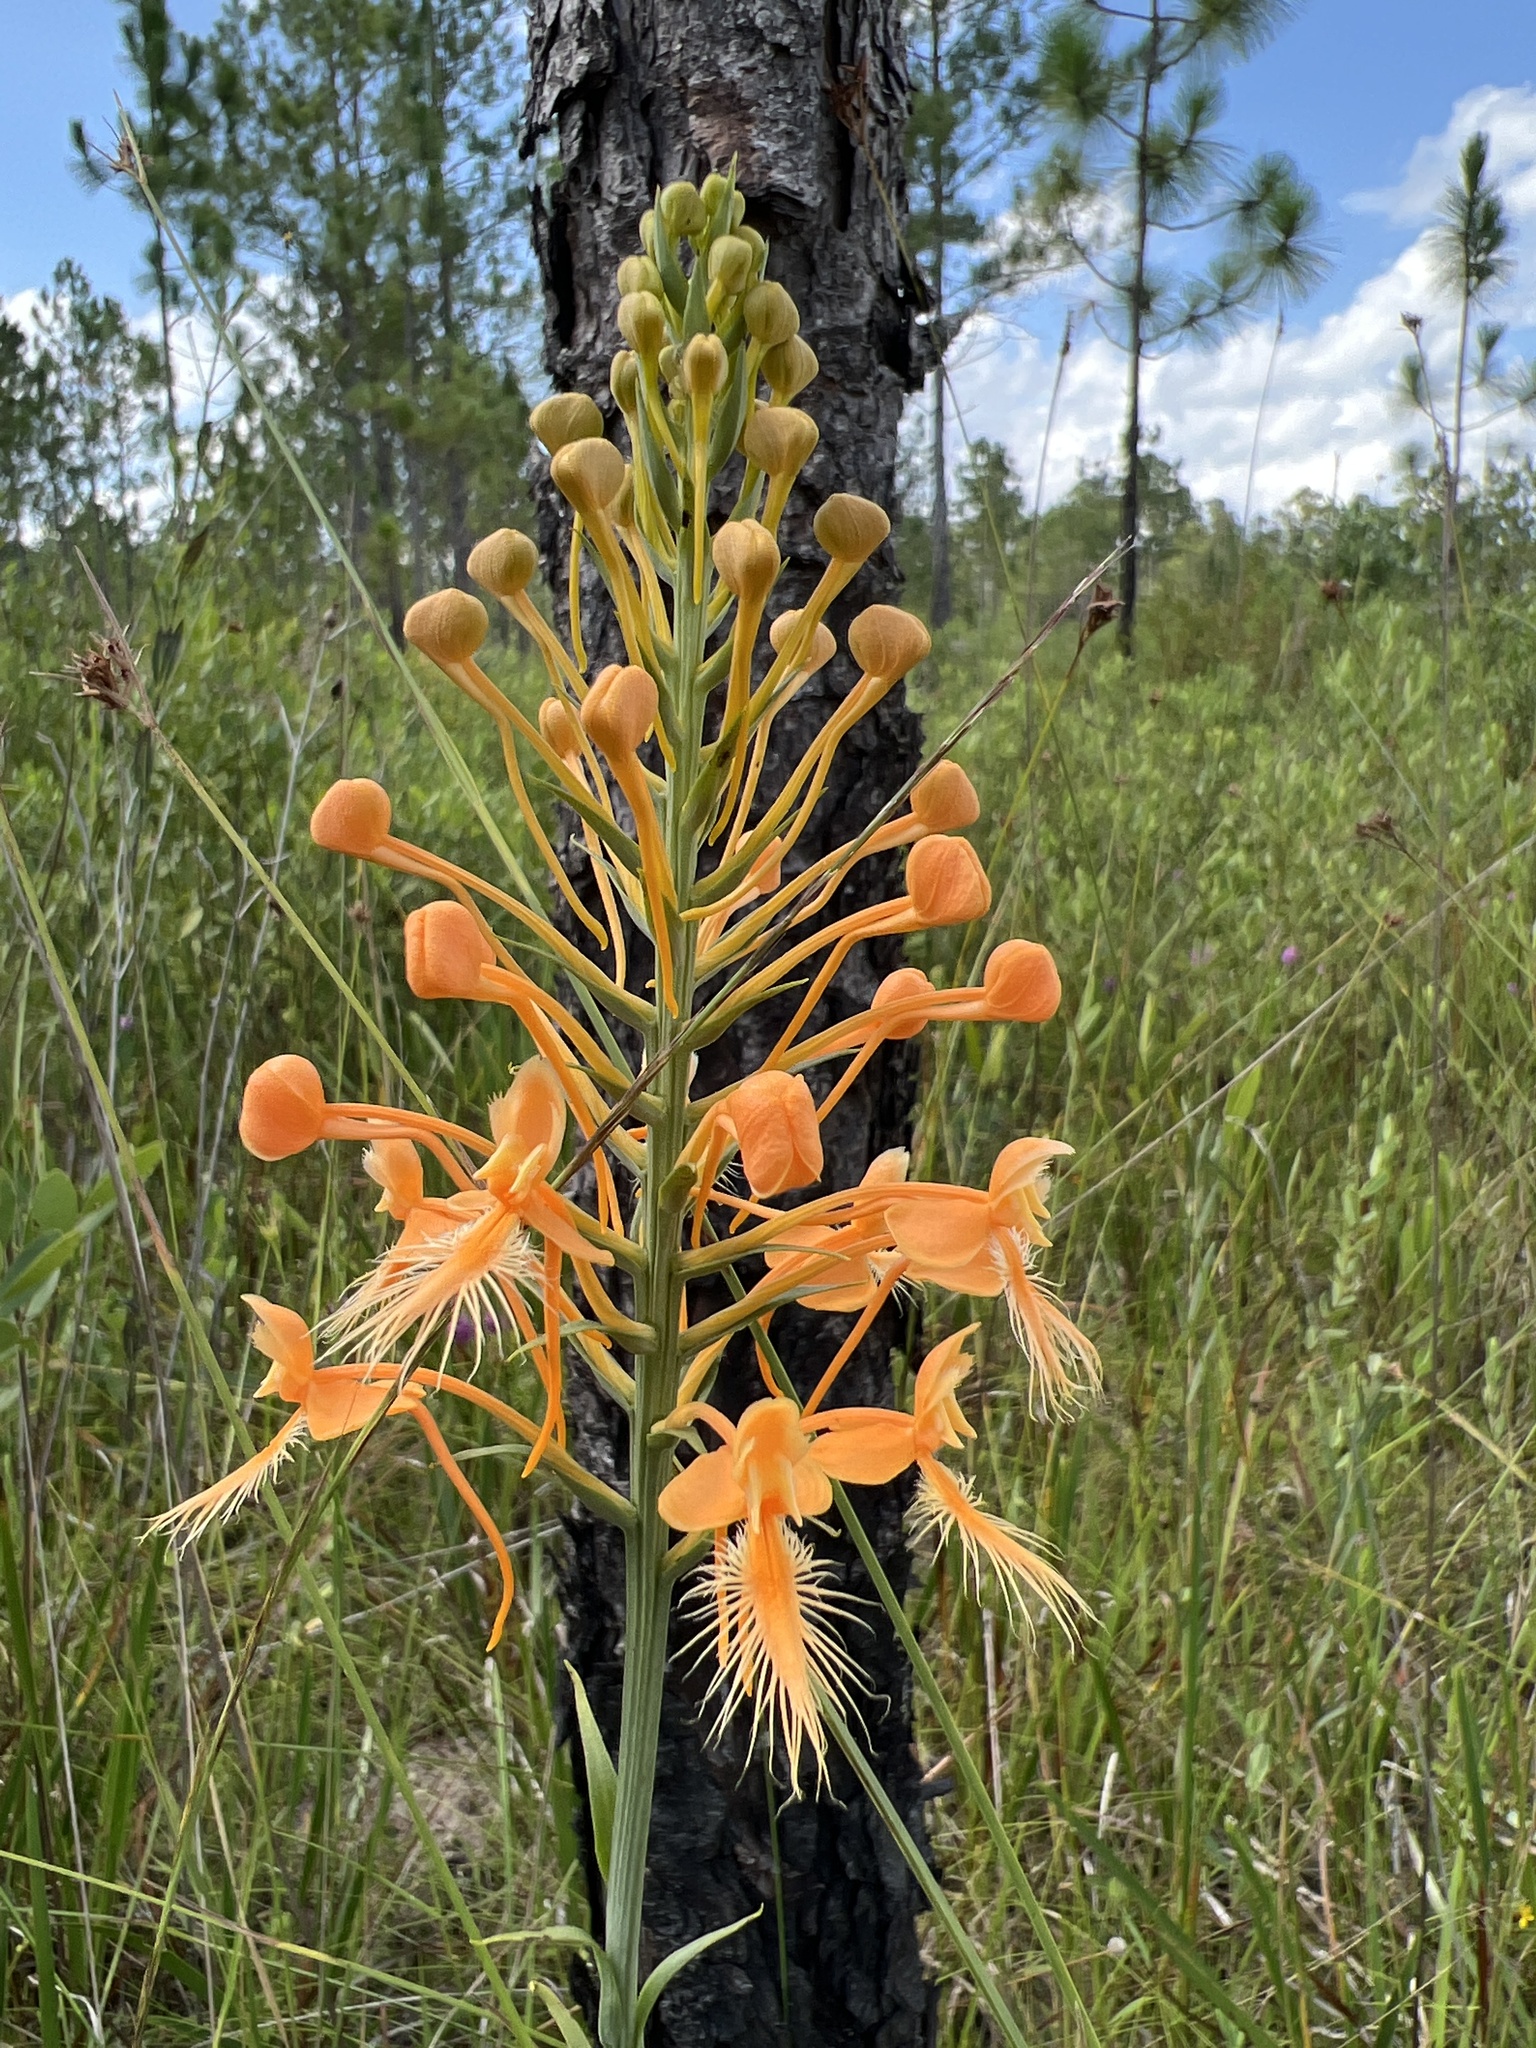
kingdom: Plantae
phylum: Tracheophyta
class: Liliopsida
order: Asparagales
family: Orchidaceae
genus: Platanthera
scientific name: Platanthera ciliaris
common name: Yellow fringed orchid
